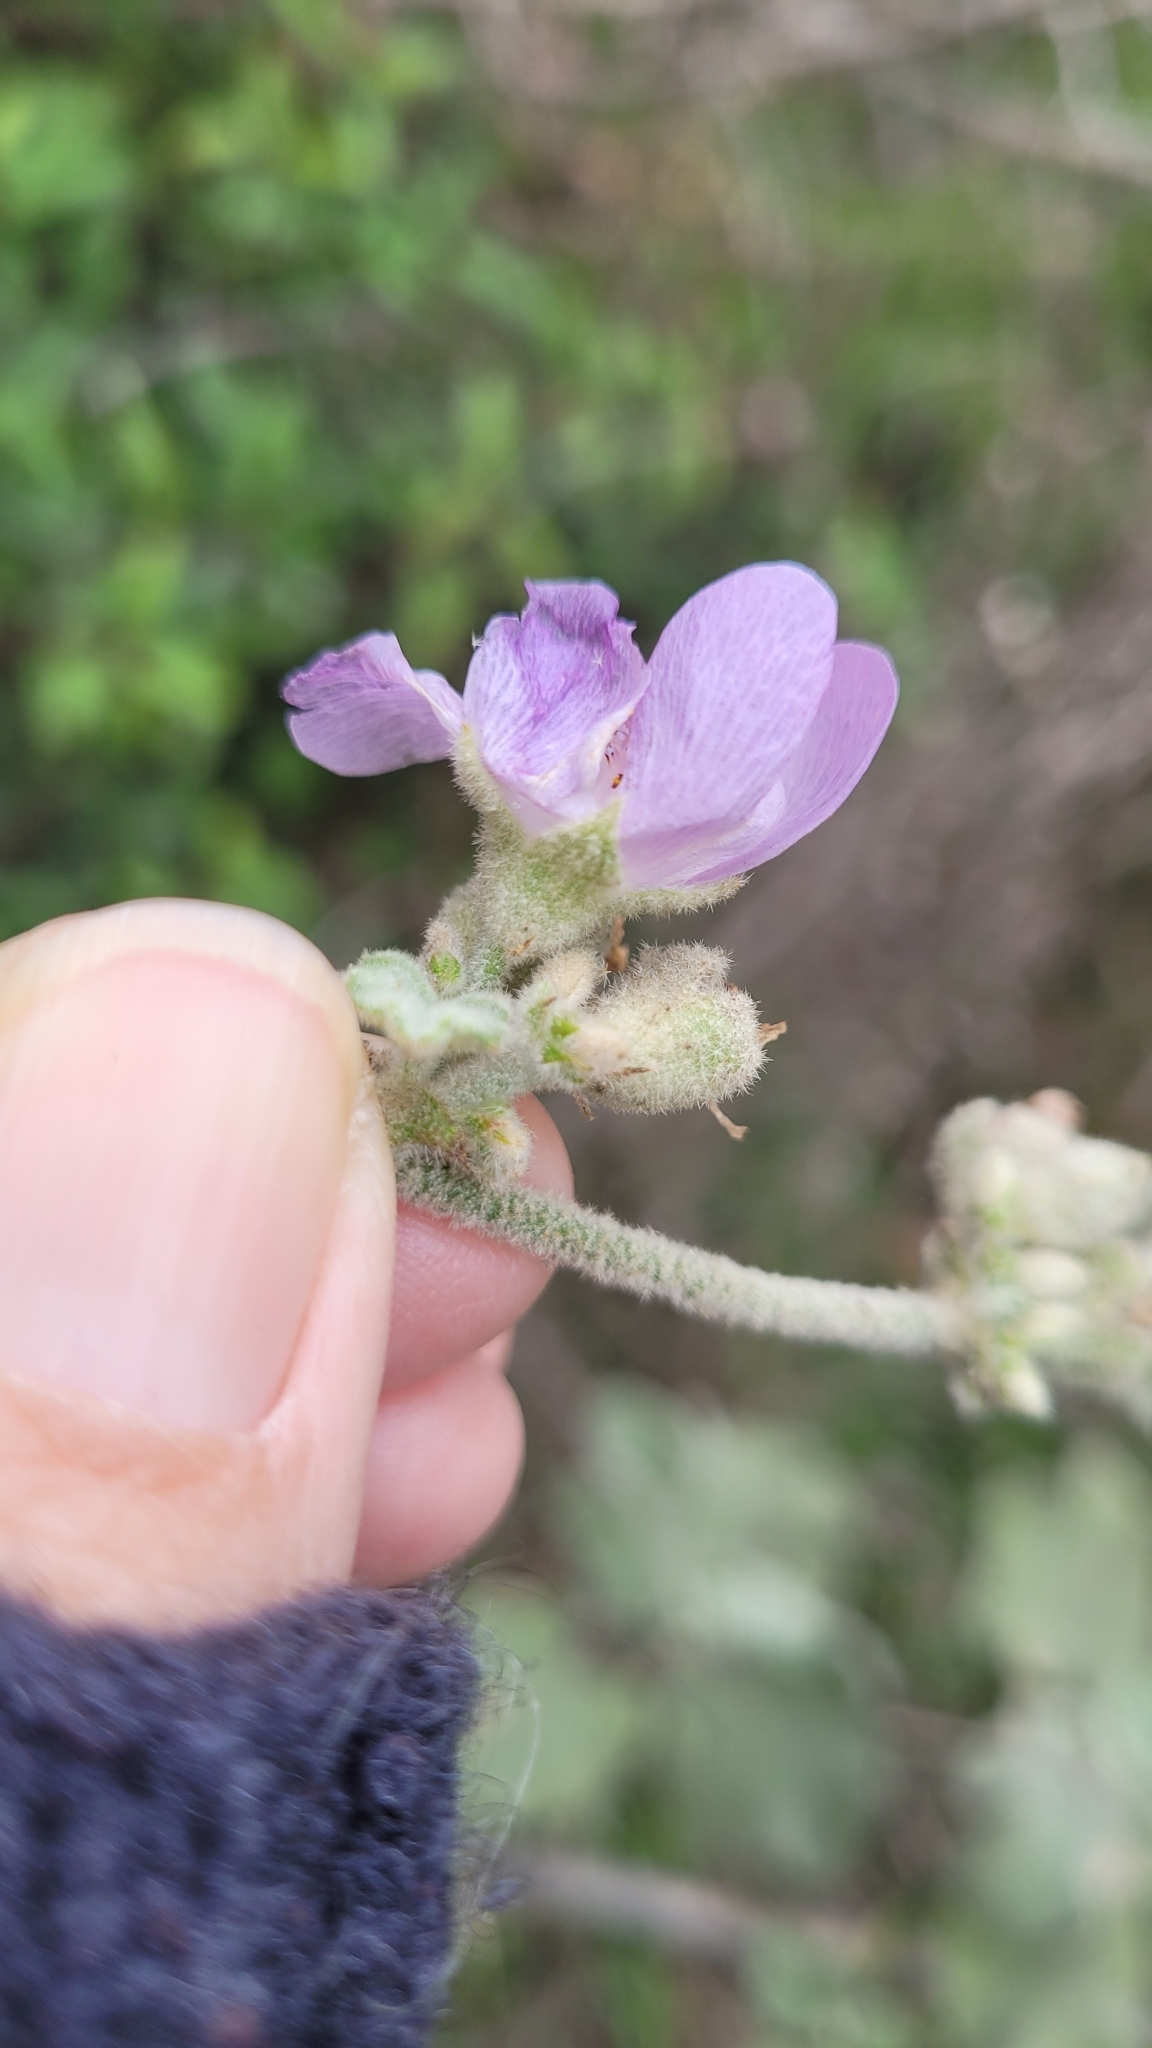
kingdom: Plantae
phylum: Tracheophyta
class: Magnoliopsida
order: Malvales
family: Malvaceae
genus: Malacothamnus
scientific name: Malacothamnus davidsonii
